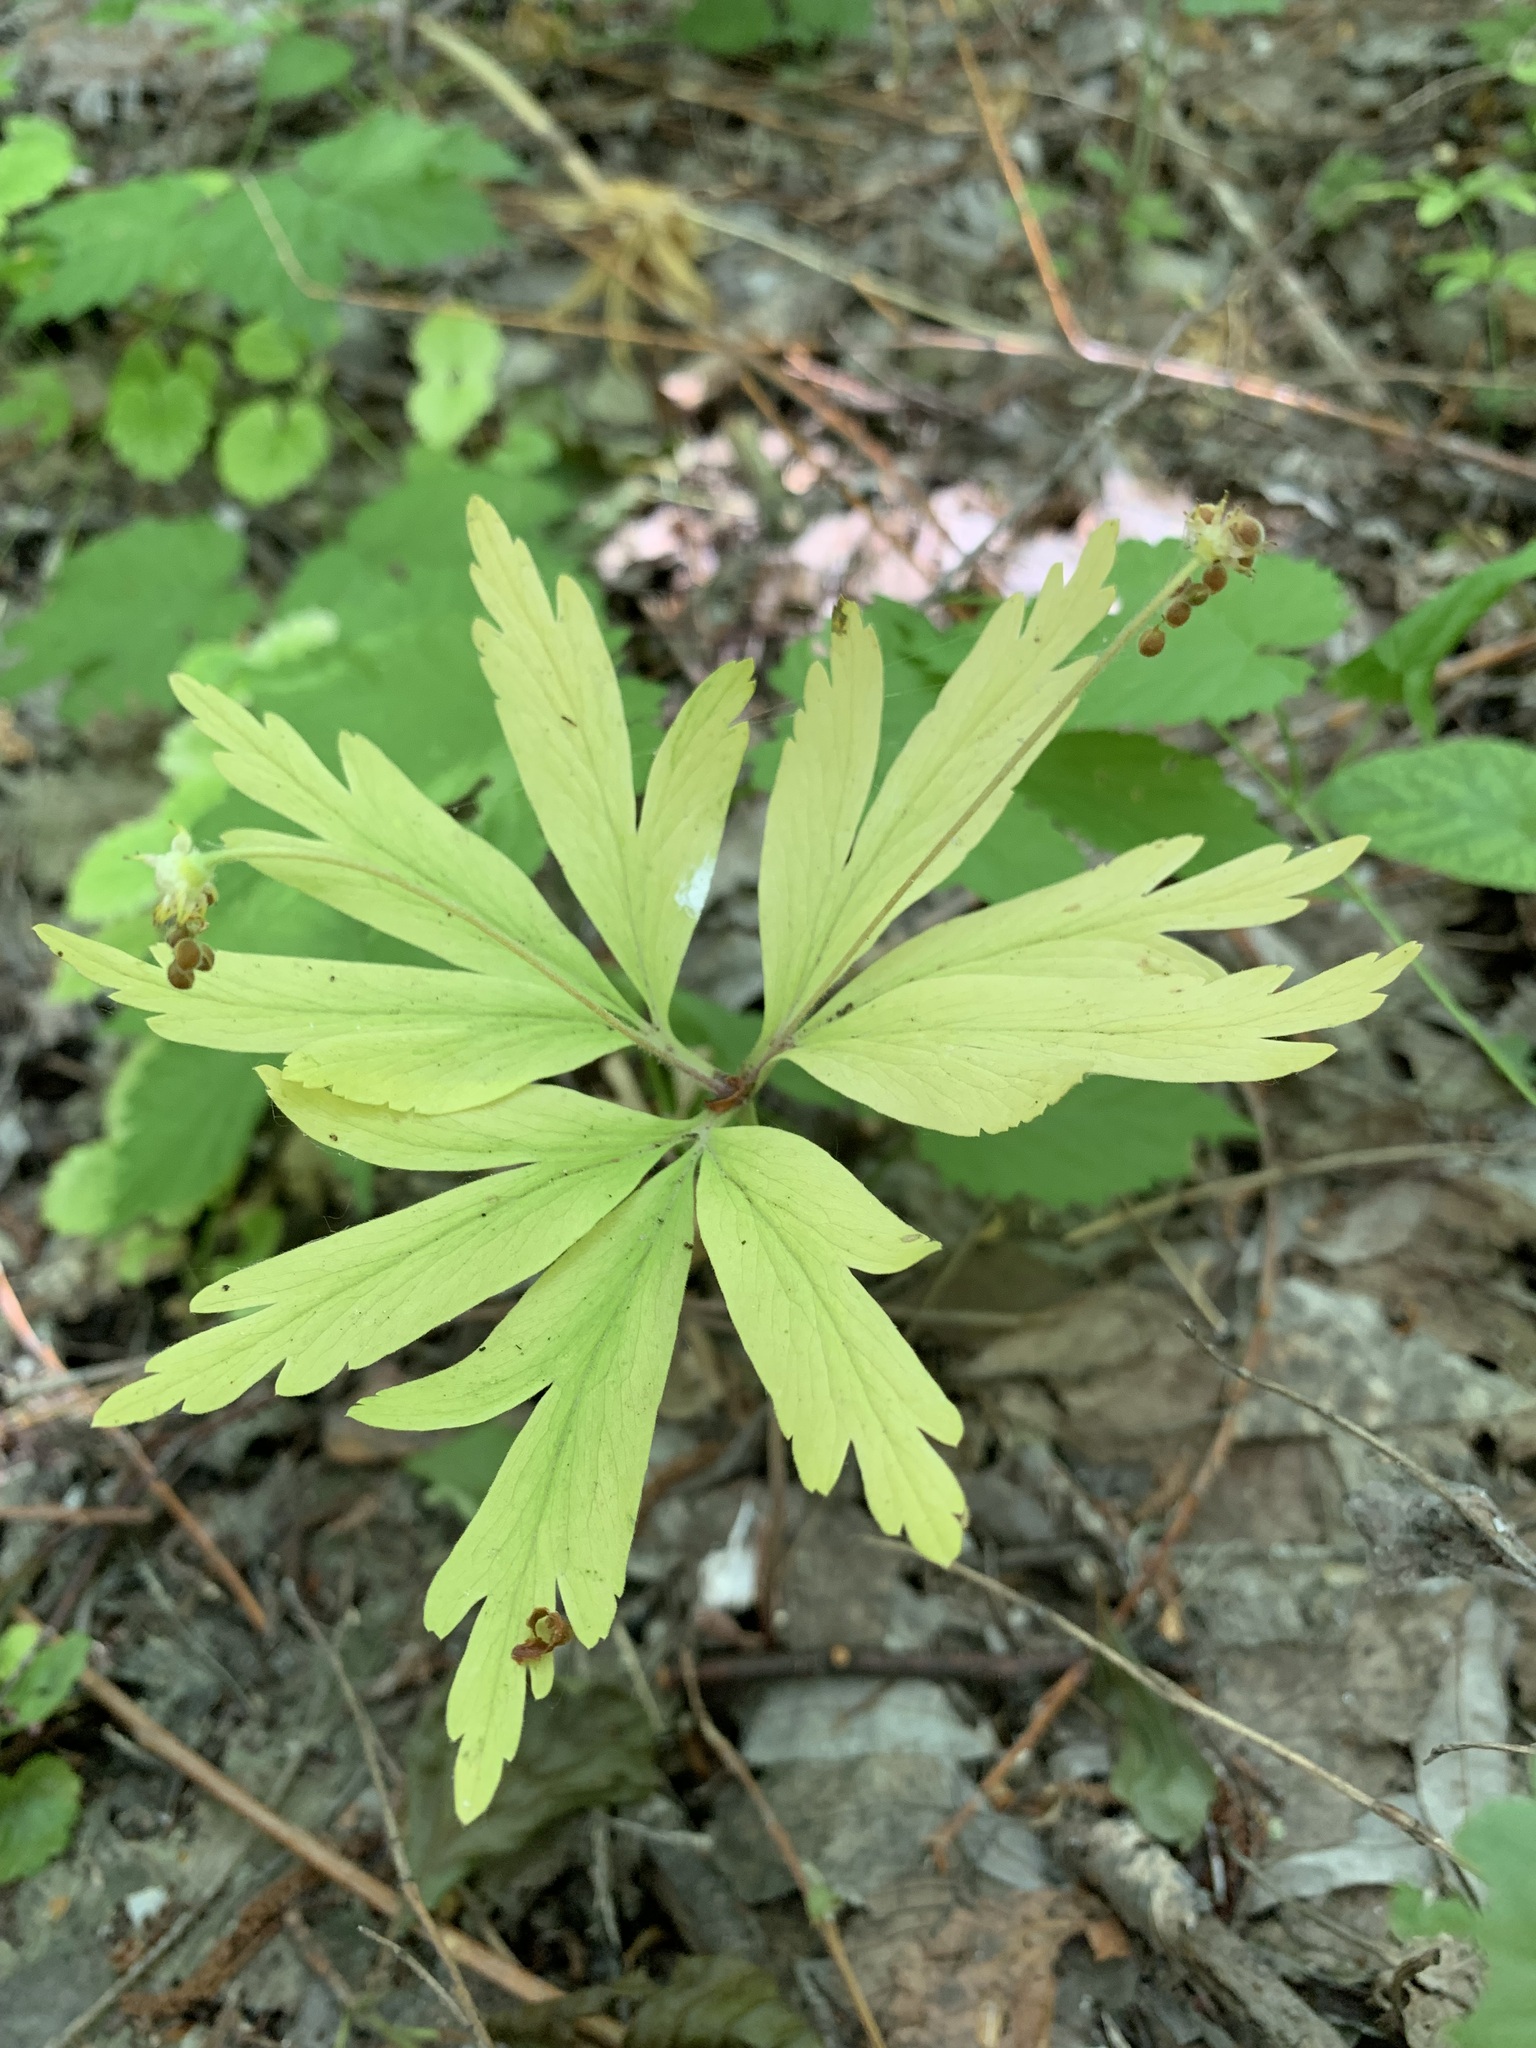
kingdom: Plantae
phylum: Tracheophyta
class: Magnoliopsida
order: Ranunculales
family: Ranunculaceae
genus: Anemone
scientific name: Anemone ranunculoides
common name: Yellow anemone
